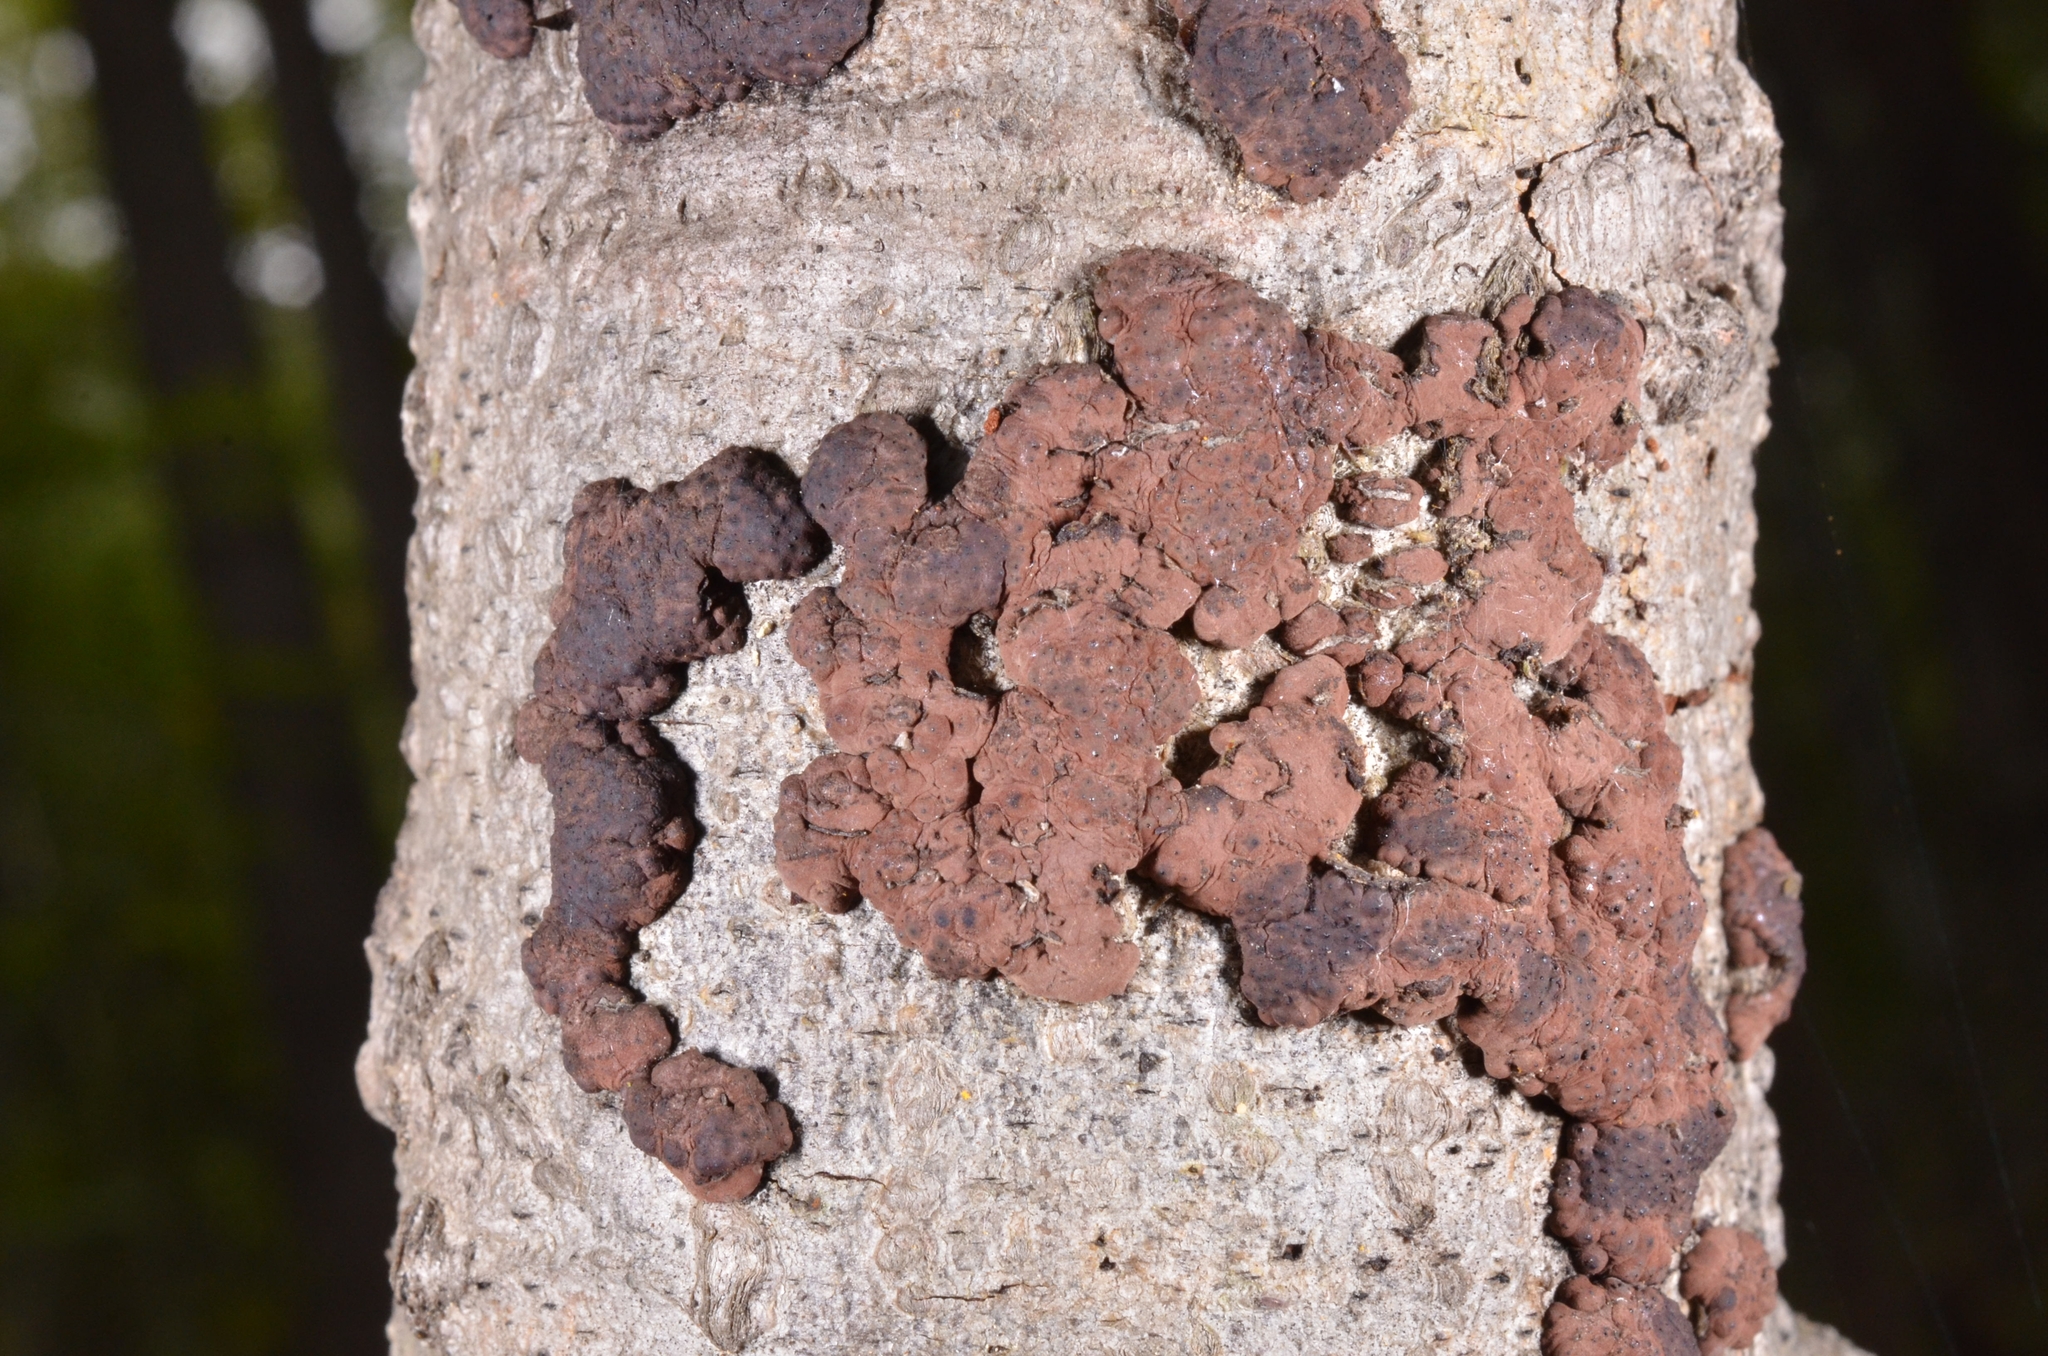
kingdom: Fungi
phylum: Ascomycota
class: Sordariomycetes
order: Xylariales
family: Hypoxylaceae
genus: Jackrogersella
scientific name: Jackrogersella multiformis
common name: Birch woodwart
